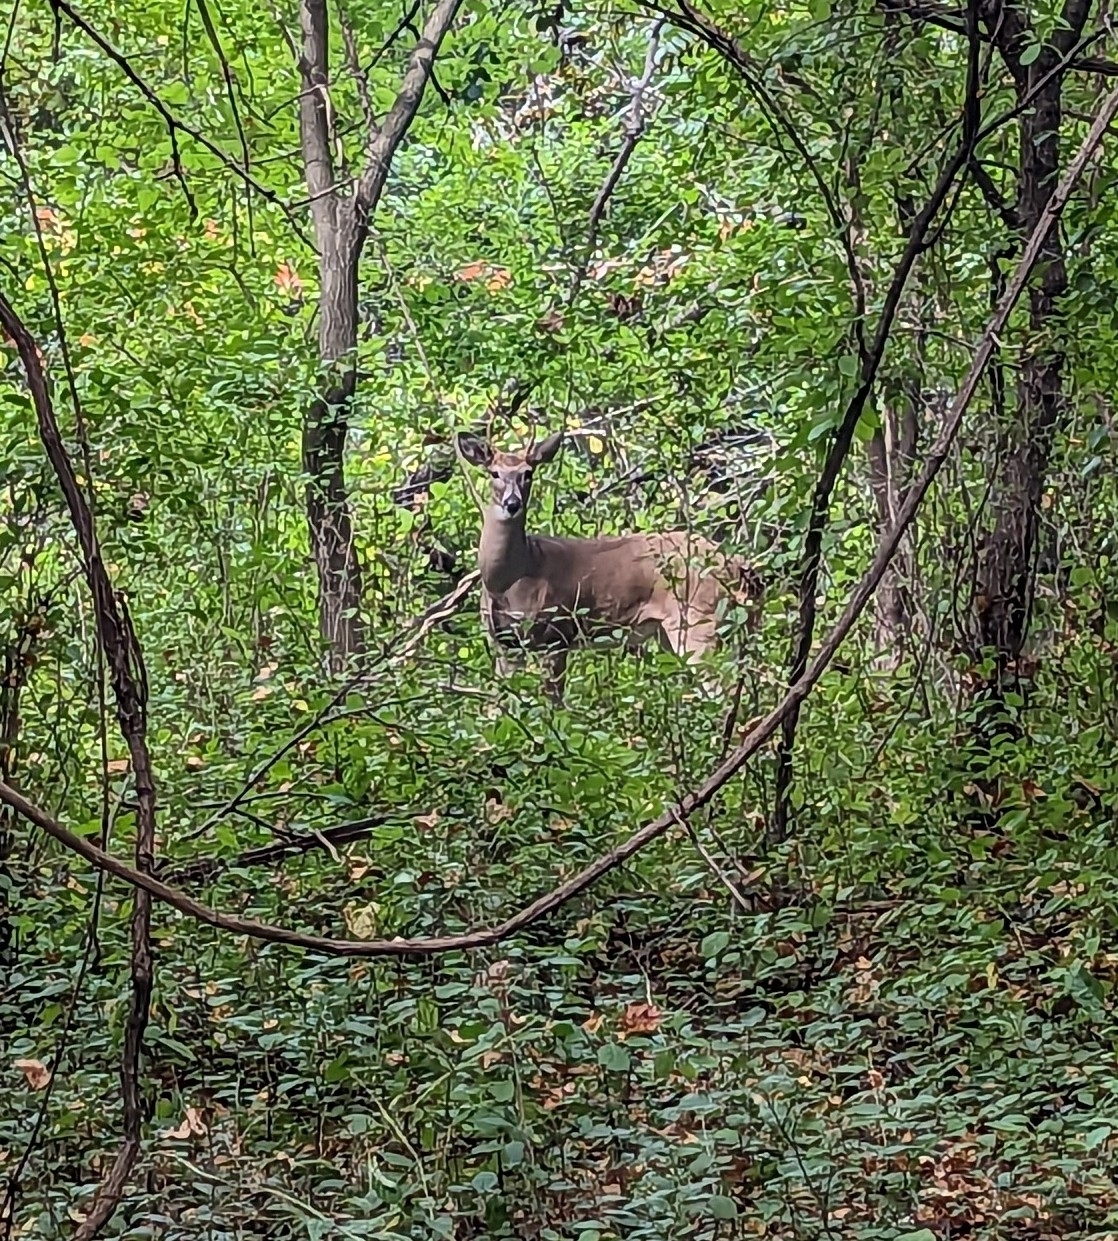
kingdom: Animalia
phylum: Chordata
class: Mammalia
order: Artiodactyla
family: Cervidae
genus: Odocoileus
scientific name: Odocoileus virginianus
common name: White-tailed deer
